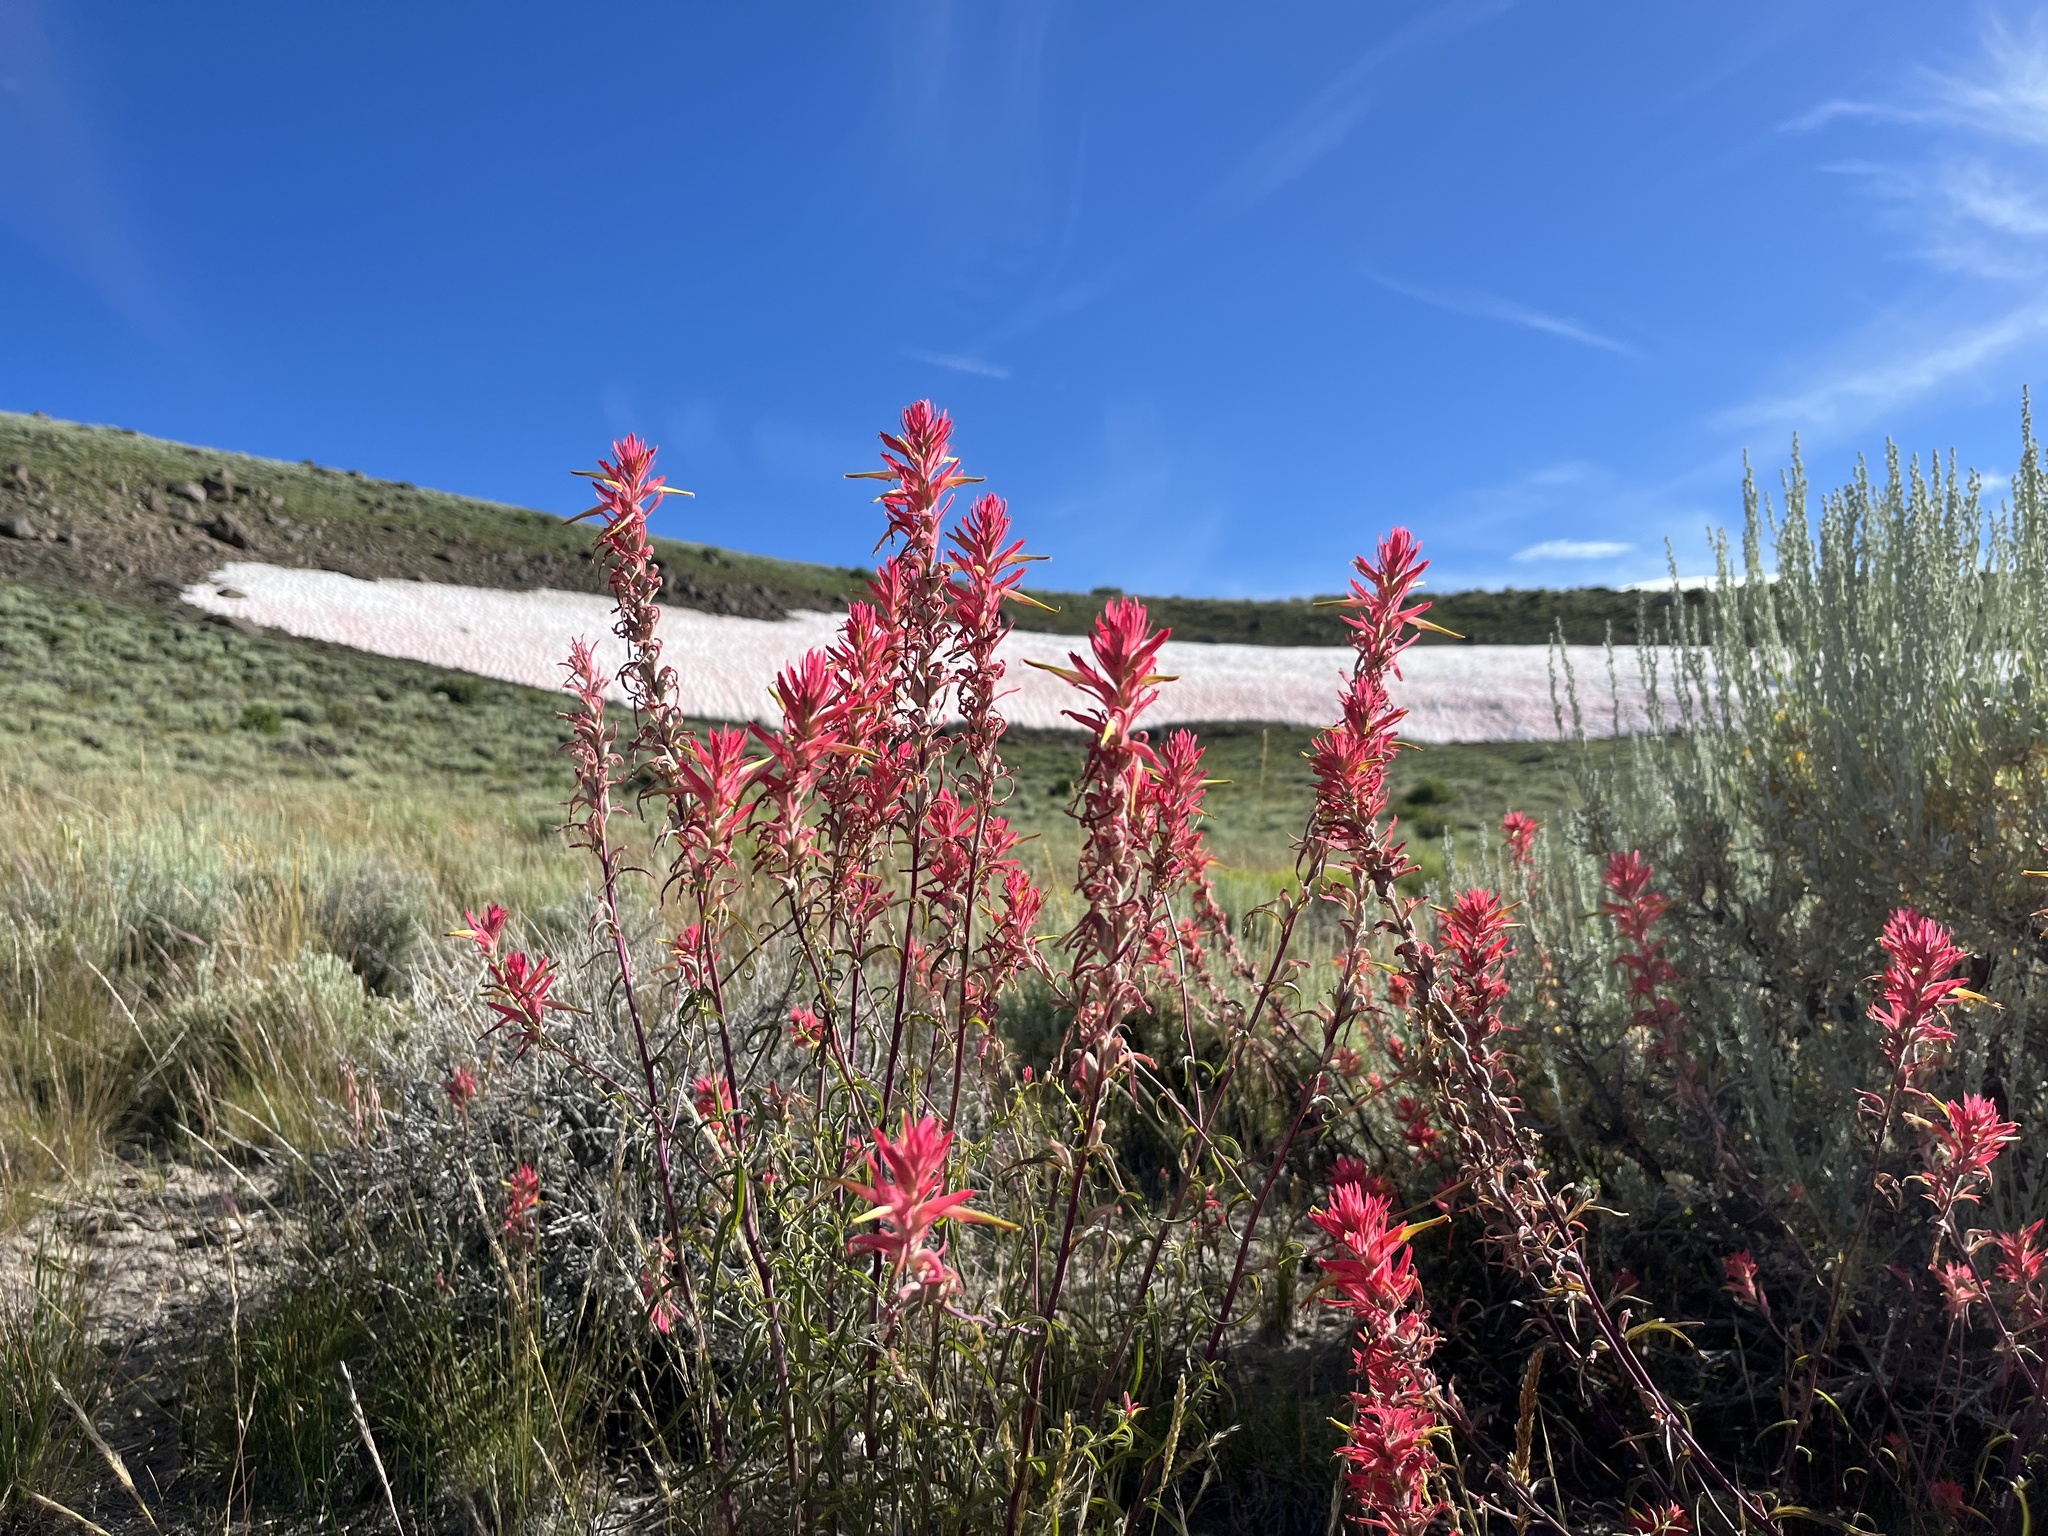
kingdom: Plantae
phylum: Tracheophyta
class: Magnoliopsida
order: Lamiales
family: Orobanchaceae
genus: Castilleja
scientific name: Castilleja linariifolia
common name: Wyoming paintbrush
